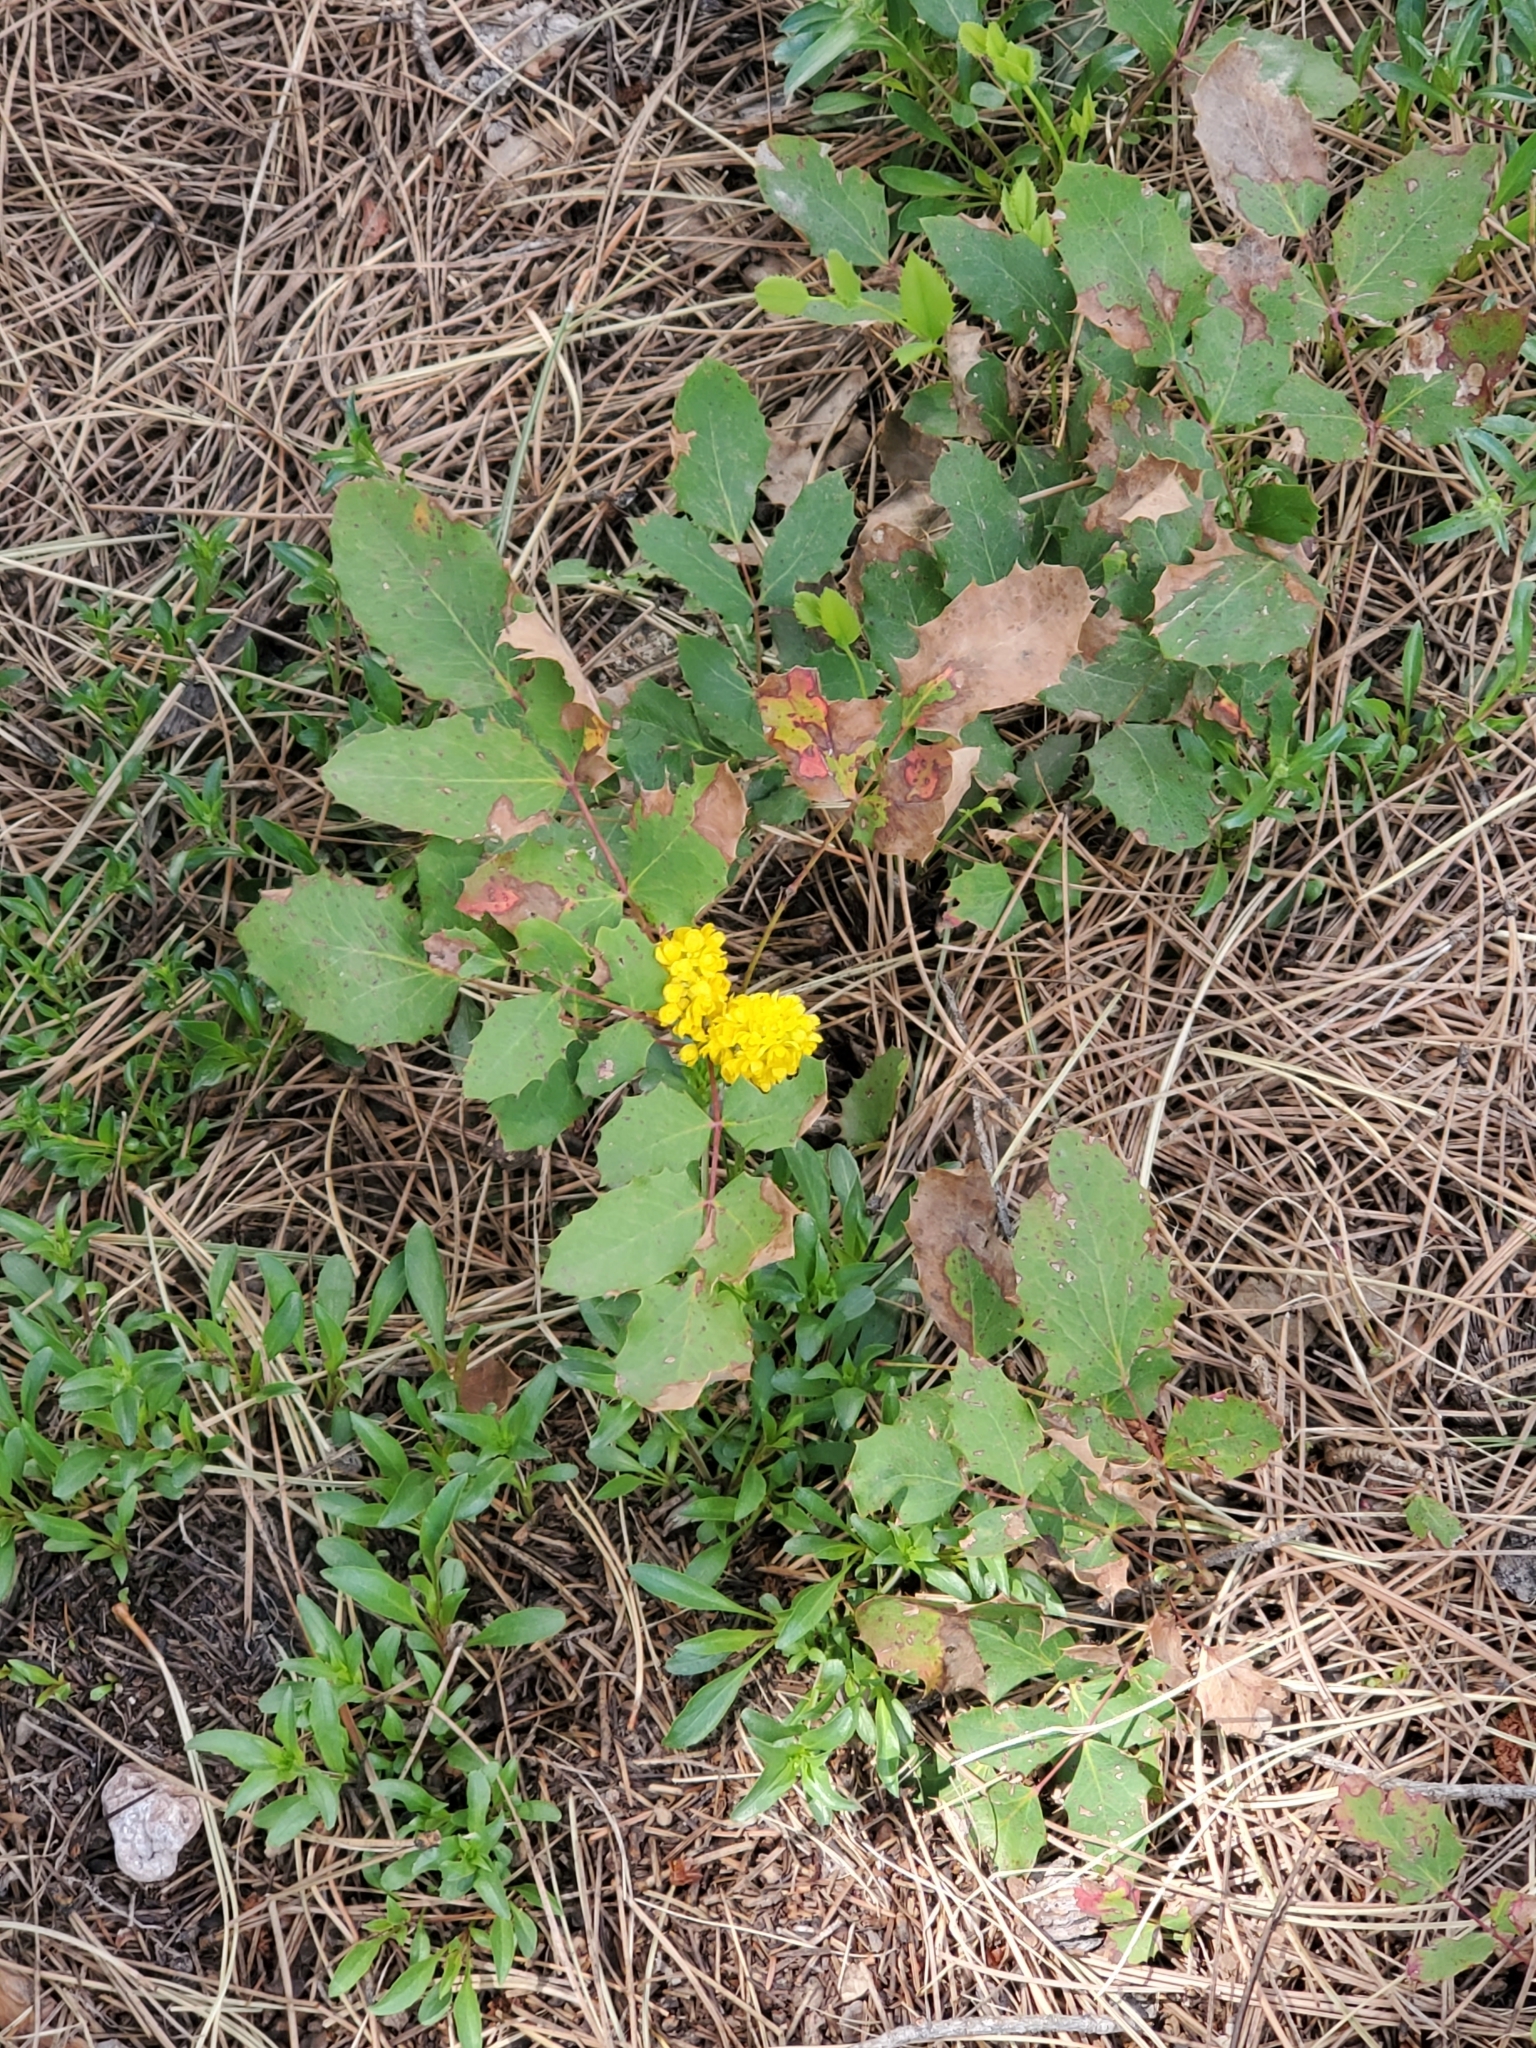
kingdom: Plantae
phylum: Tracheophyta
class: Magnoliopsida
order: Ranunculales
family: Berberidaceae
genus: Mahonia
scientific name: Mahonia repens
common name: Creeping oregon-grape
